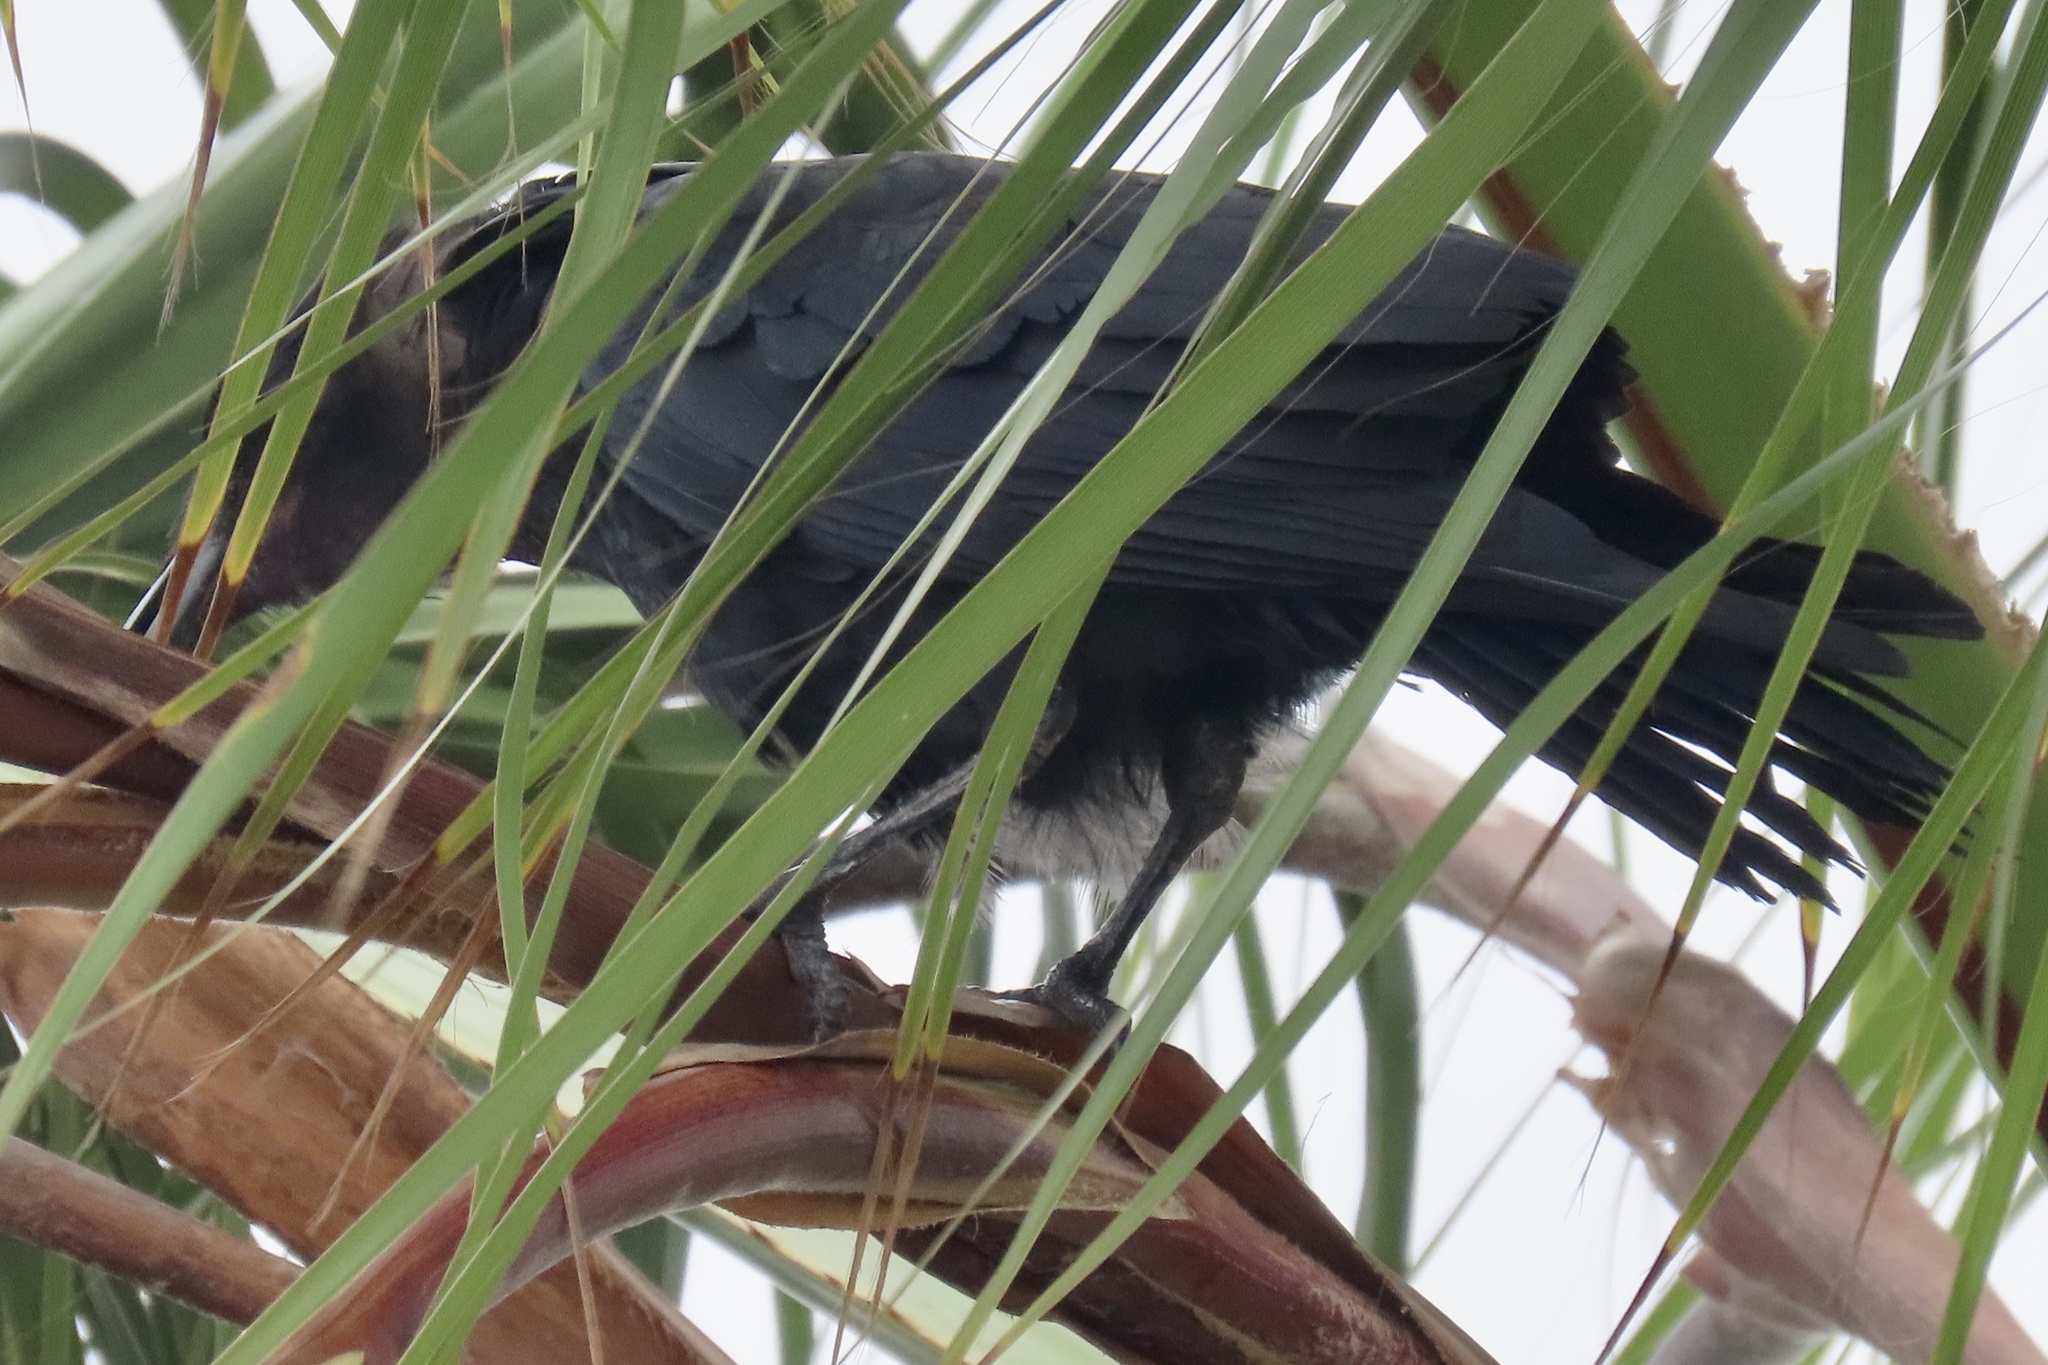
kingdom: Animalia
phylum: Chordata
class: Aves
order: Passeriformes
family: Corvidae
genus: Corvus
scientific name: Corvus brachyrhynchos
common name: American crow
